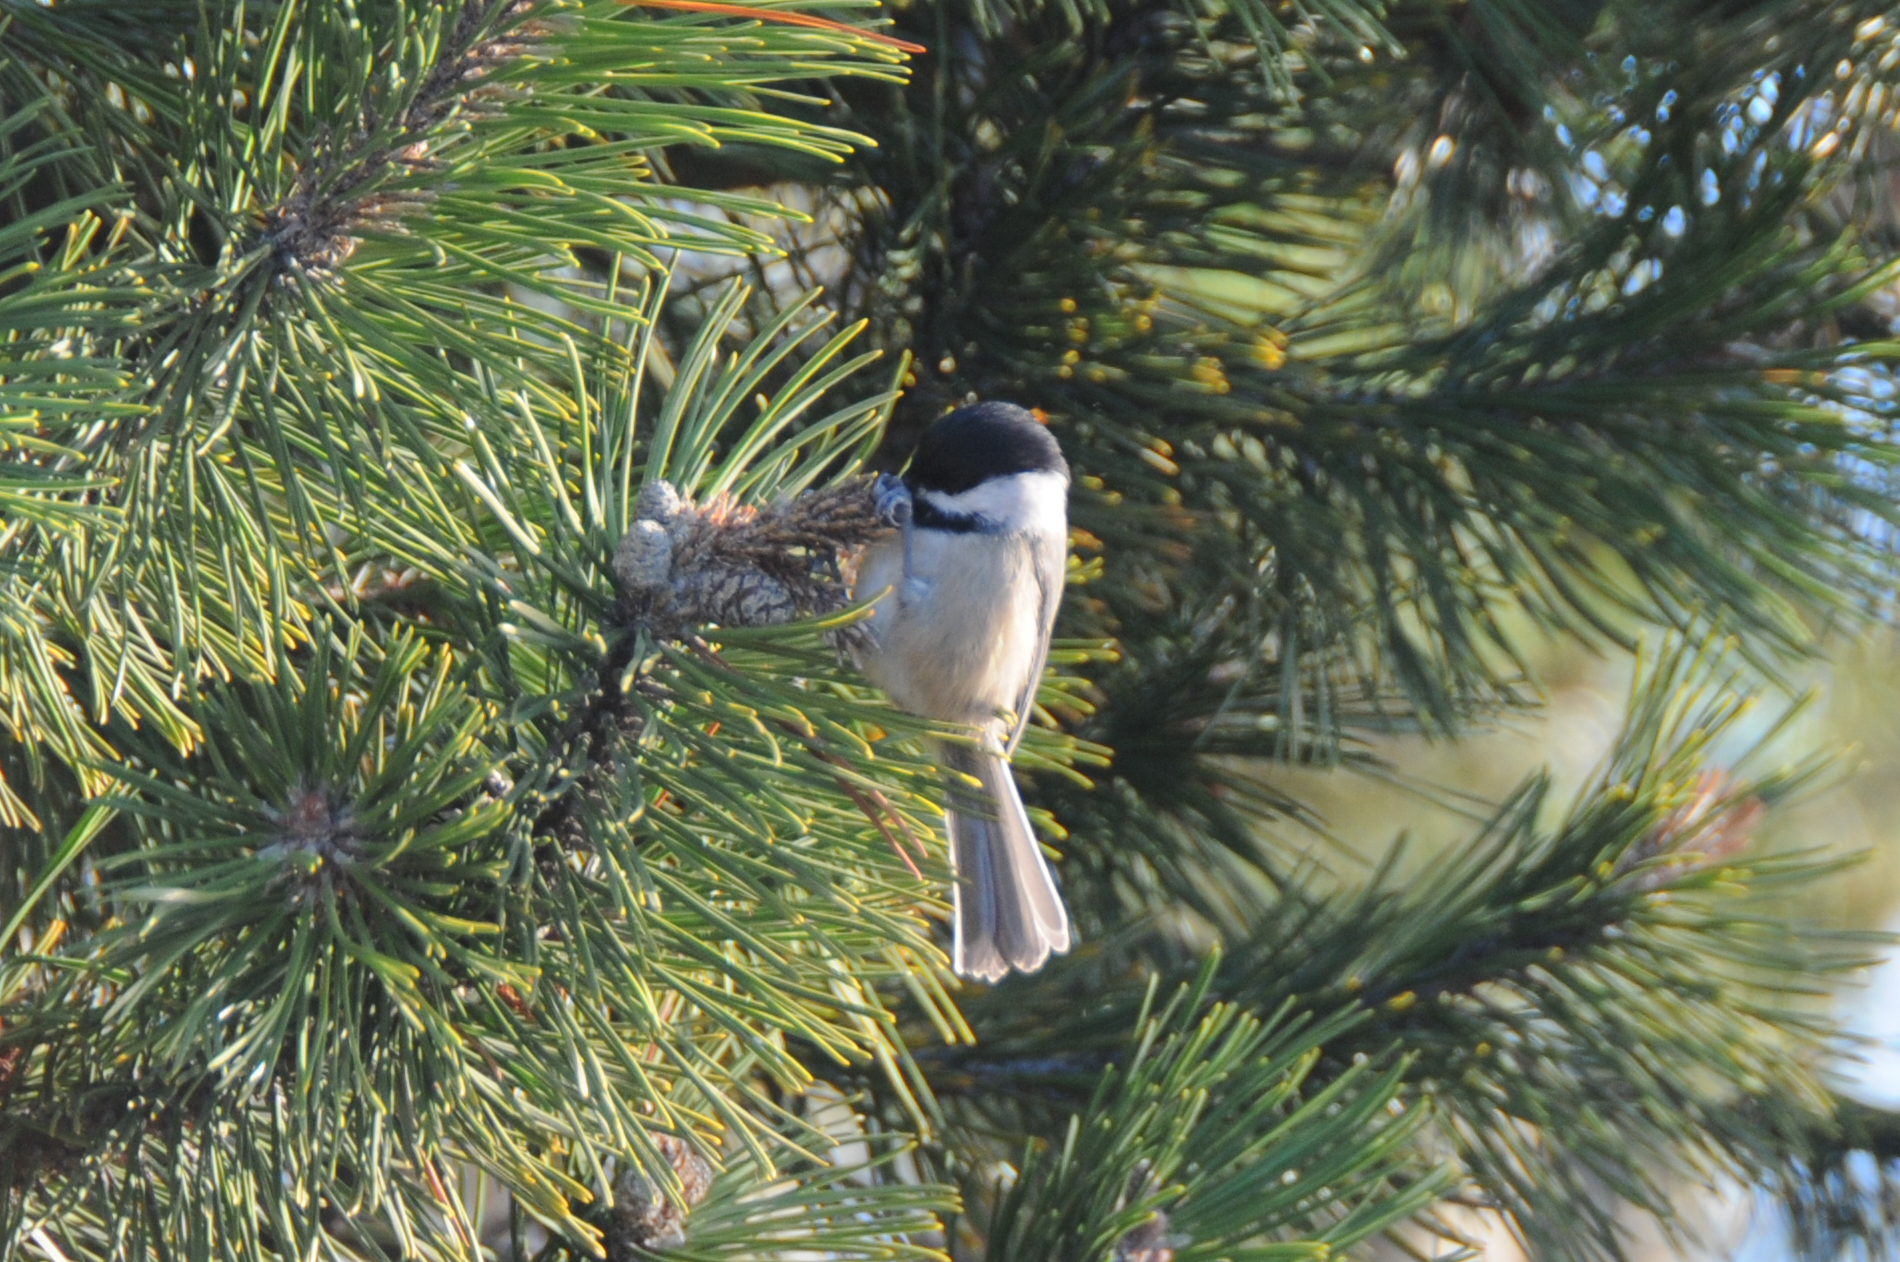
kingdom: Animalia
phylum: Chordata
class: Aves
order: Passeriformes
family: Paridae
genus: Poecile
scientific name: Poecile atricapillus
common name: Black-capped chickadee
